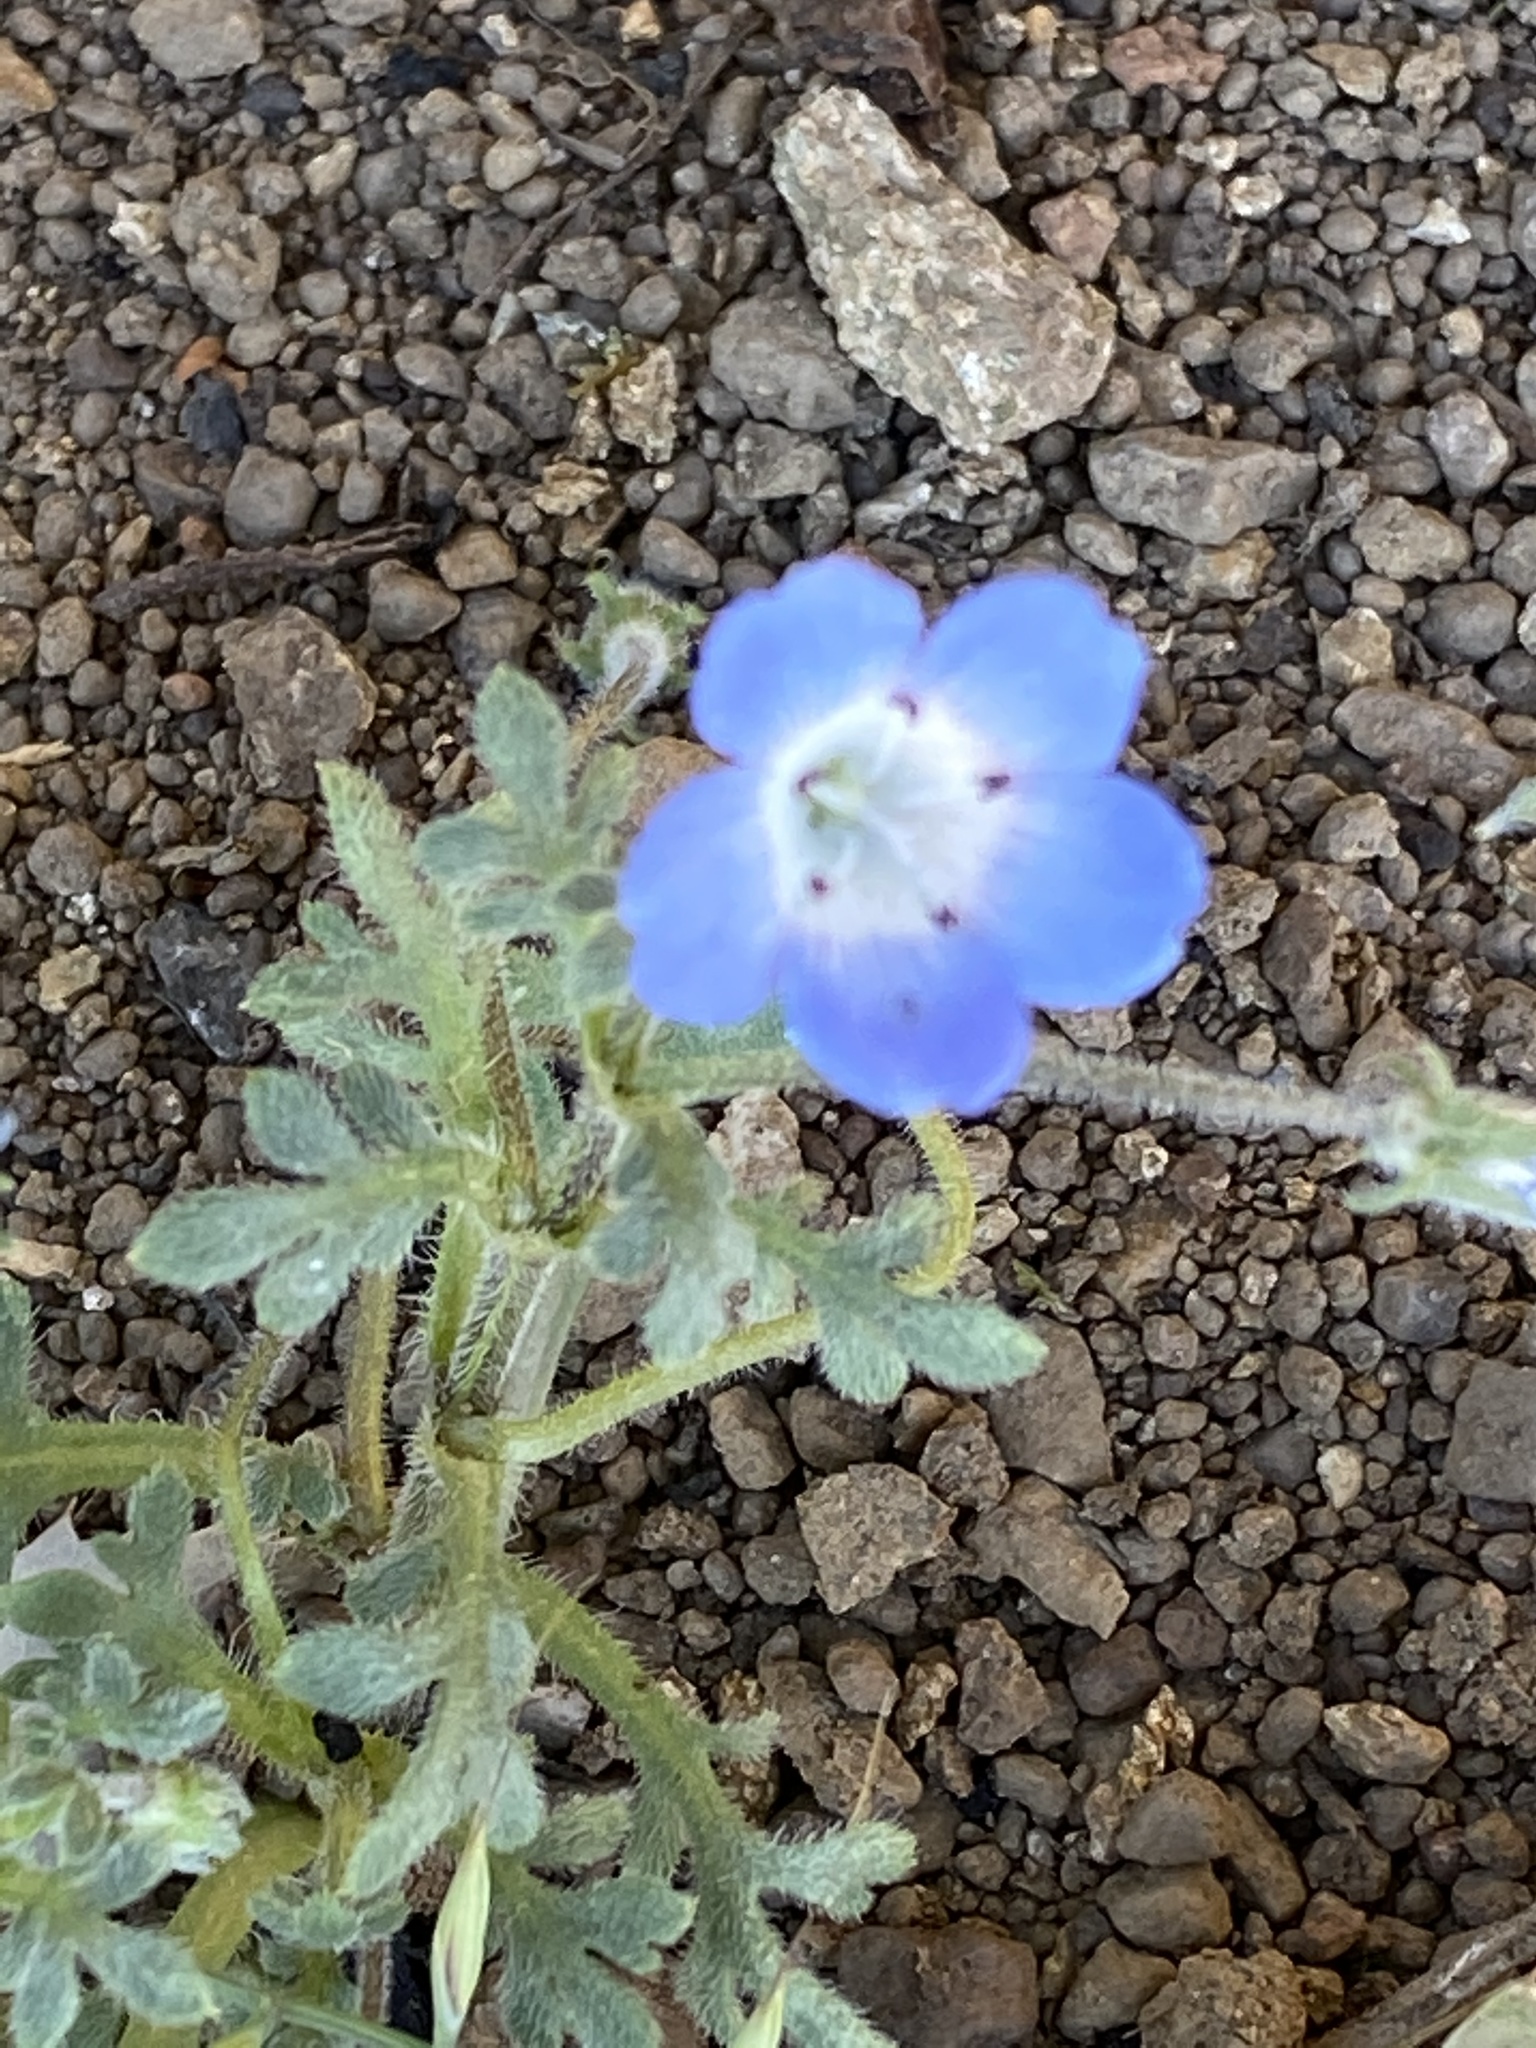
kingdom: Plantae
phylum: Tracheophyta
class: Magnoliopsida
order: Boraginales
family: Hydrophyllaceae
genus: Nemophila
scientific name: Nemophila menziesii
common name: Baby's-blue-eyes
